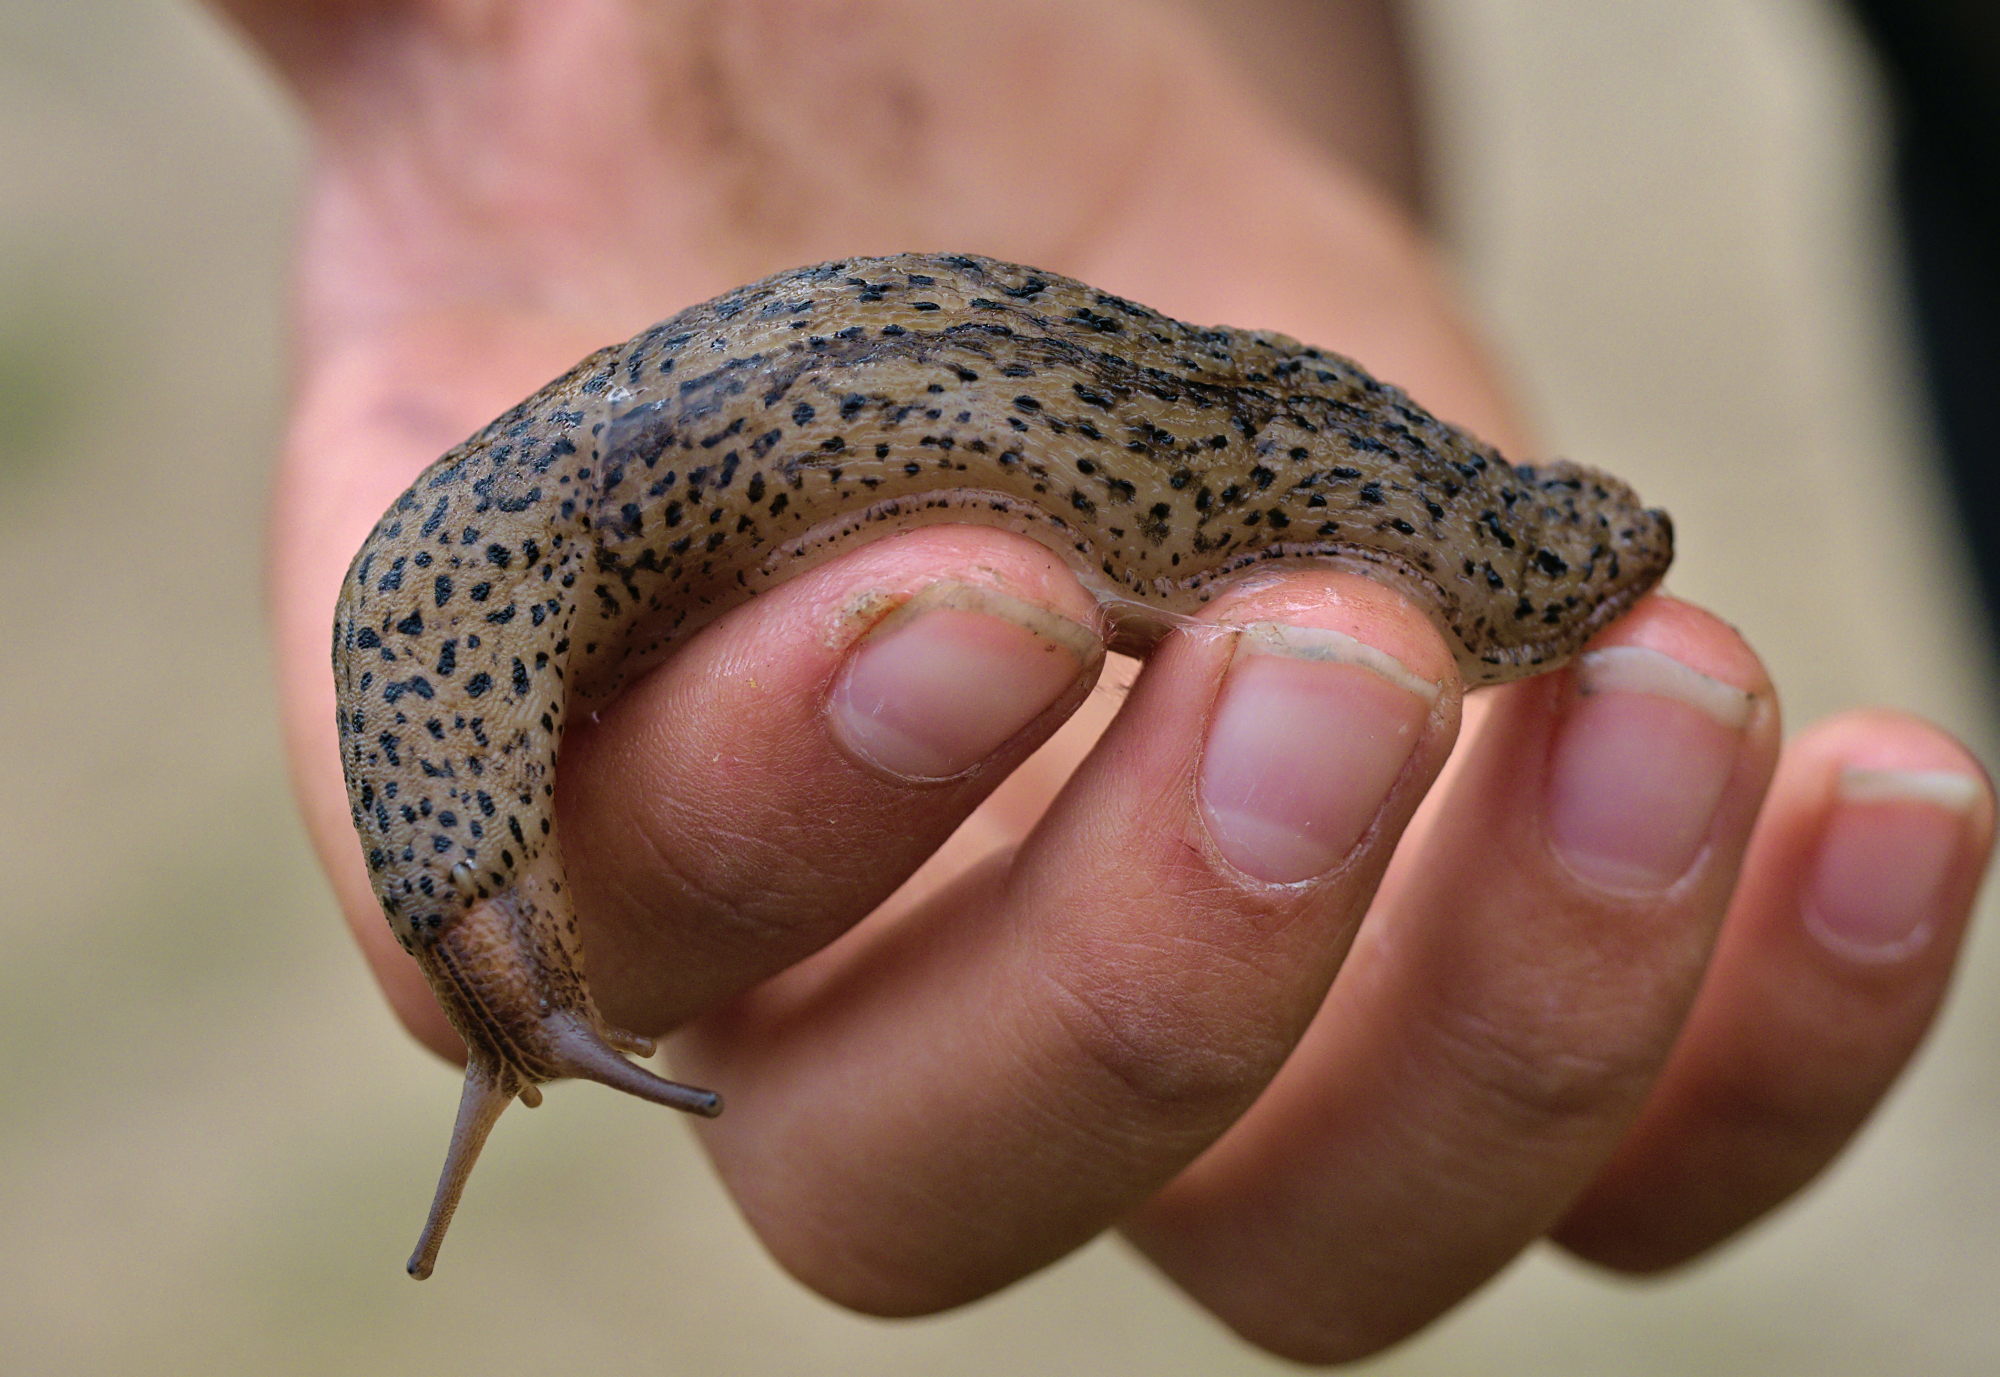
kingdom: Animalia
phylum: Mollusca
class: Gastropoda
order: Stylommatophora
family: Limacidae
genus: Limax
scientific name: Limax maximus
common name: Great grey slug
